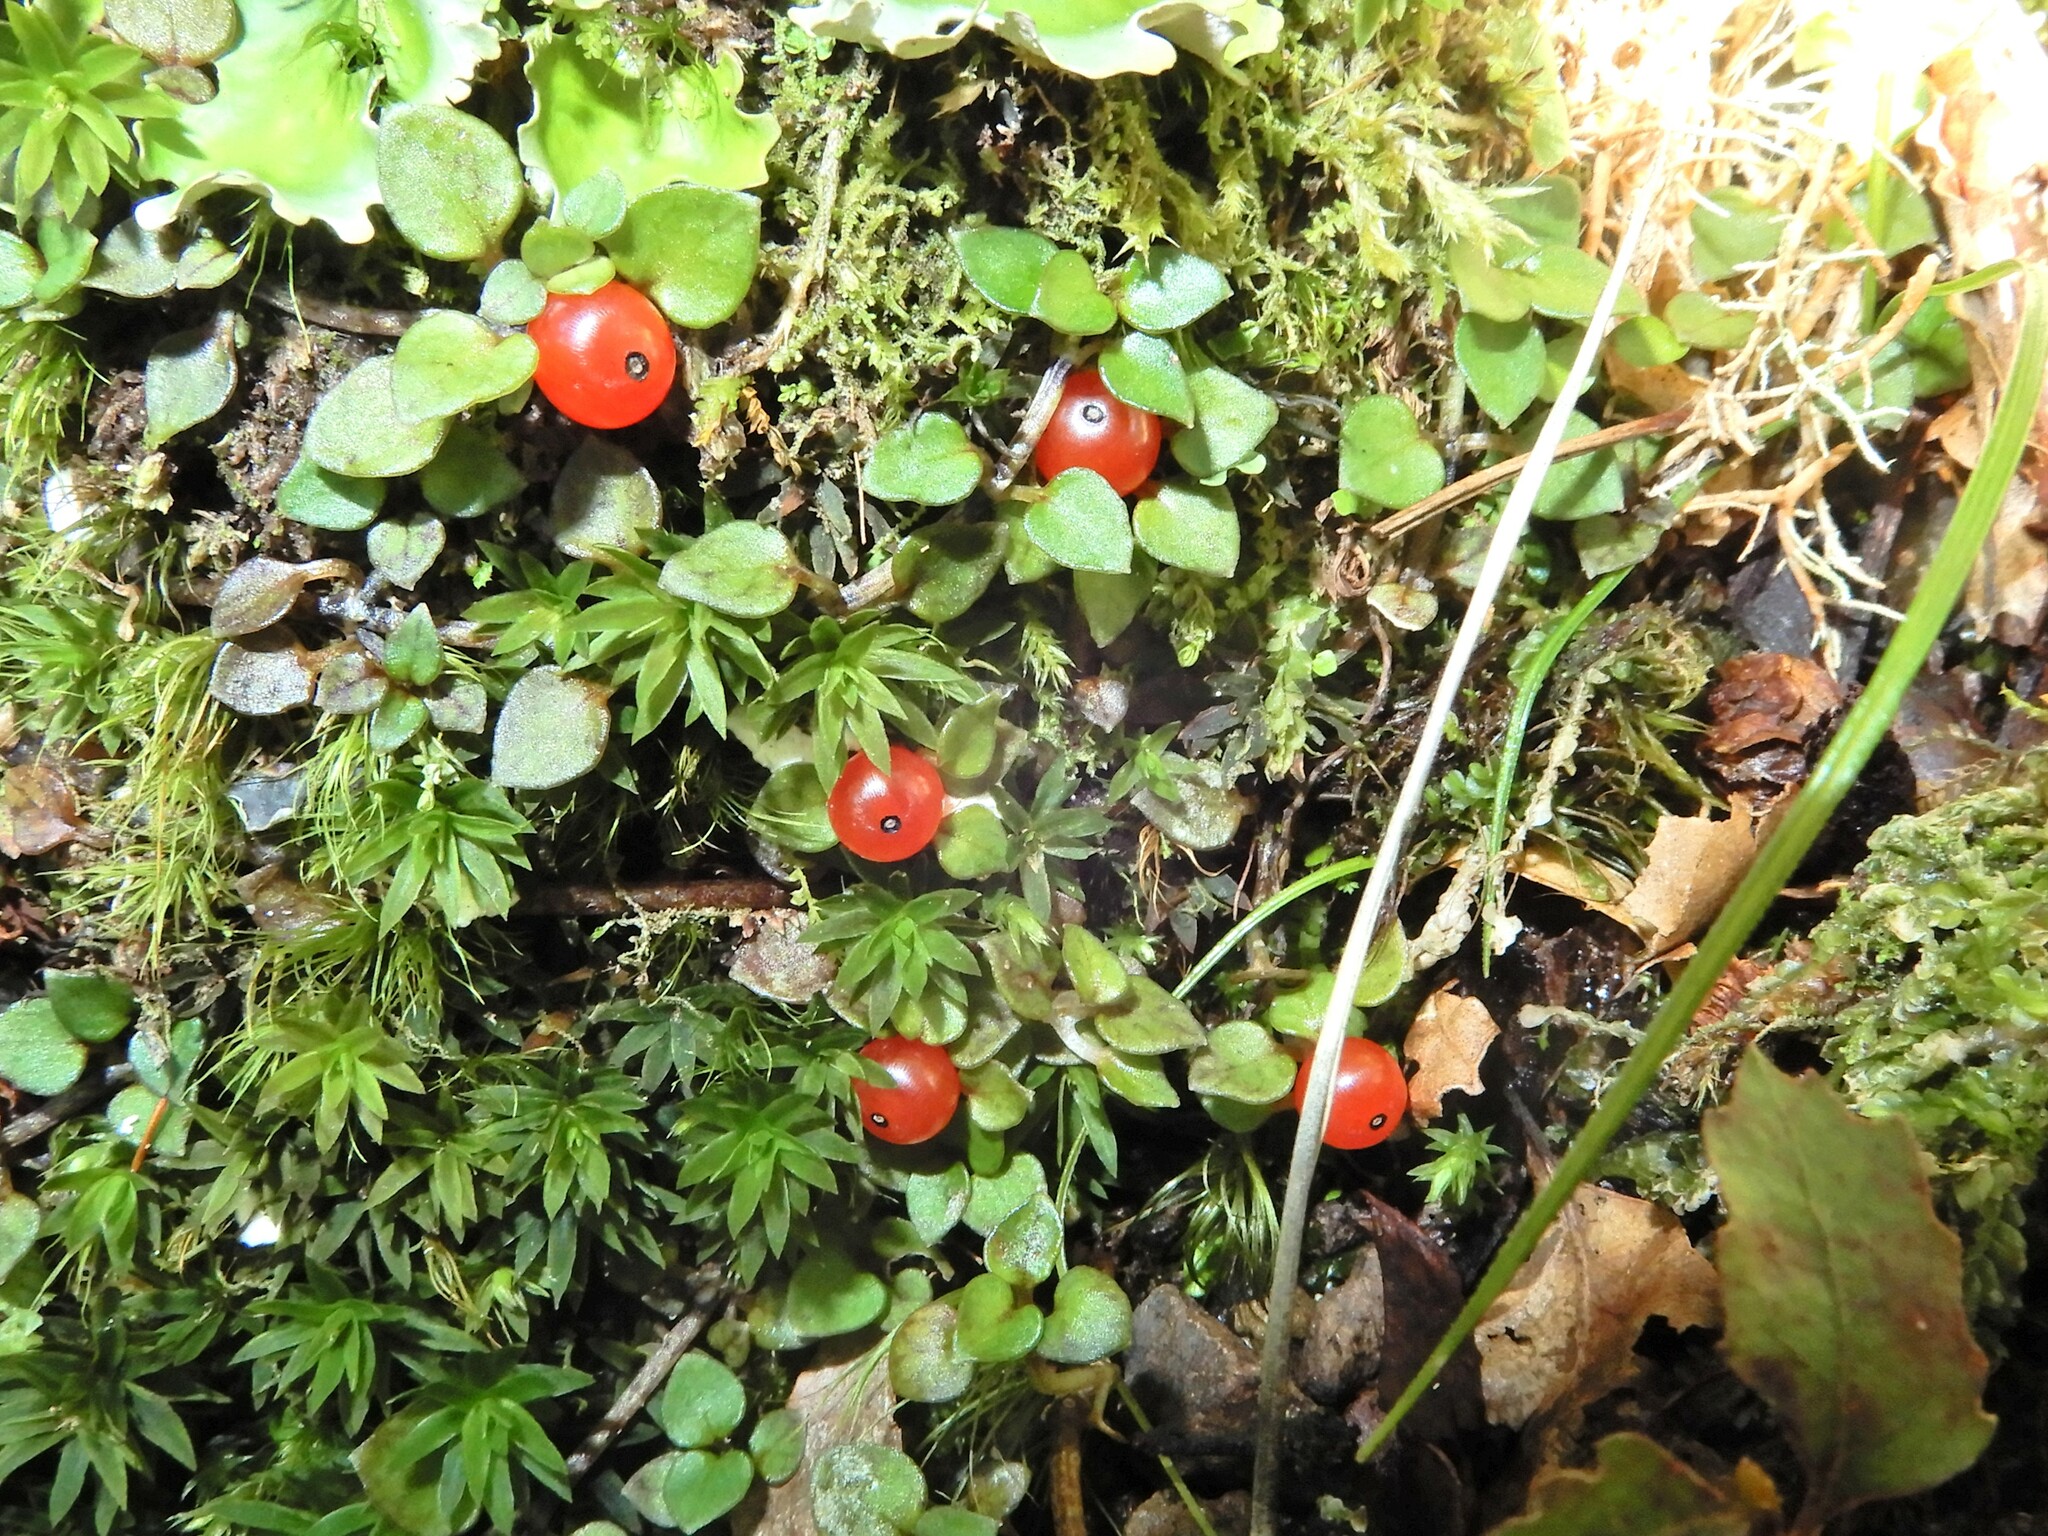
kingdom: Plantae
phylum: Tracheophyta
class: Magnoliopsida
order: Gentianales
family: Rubiaceae
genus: Nertera
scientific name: Nertera granadensis
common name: Beadplant
